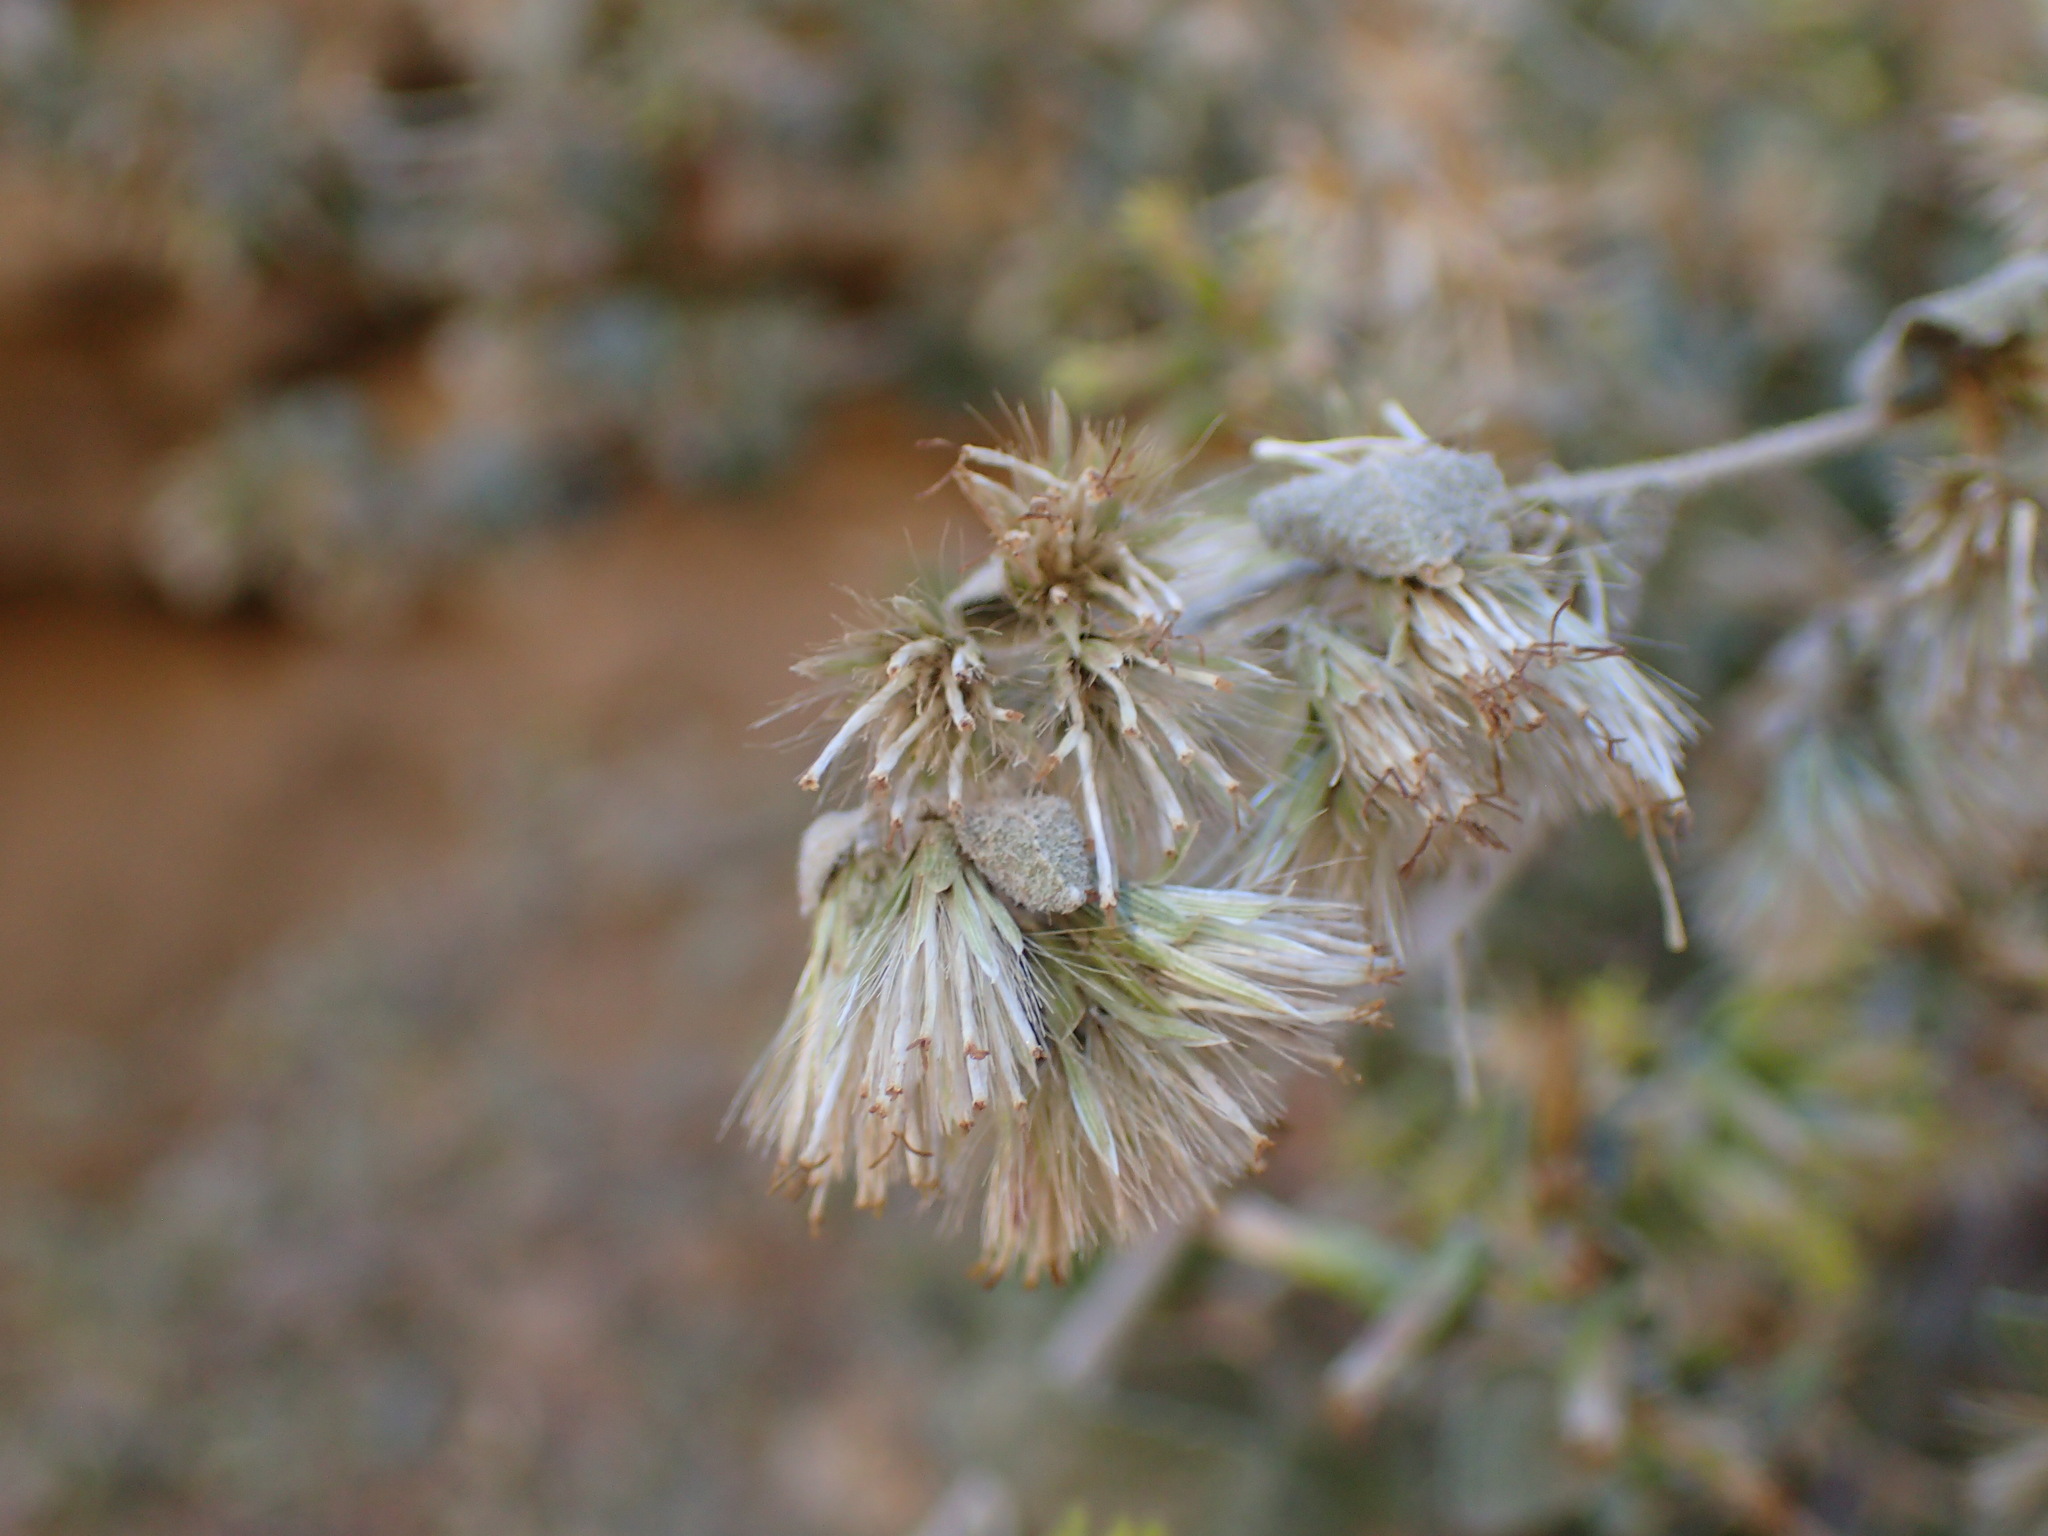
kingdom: Plantae
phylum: Tracheophyta
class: Magnoliopsida
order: Asterales
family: Asteraceae
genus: Brickellia
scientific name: Brickellia californica
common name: California brickellbush
